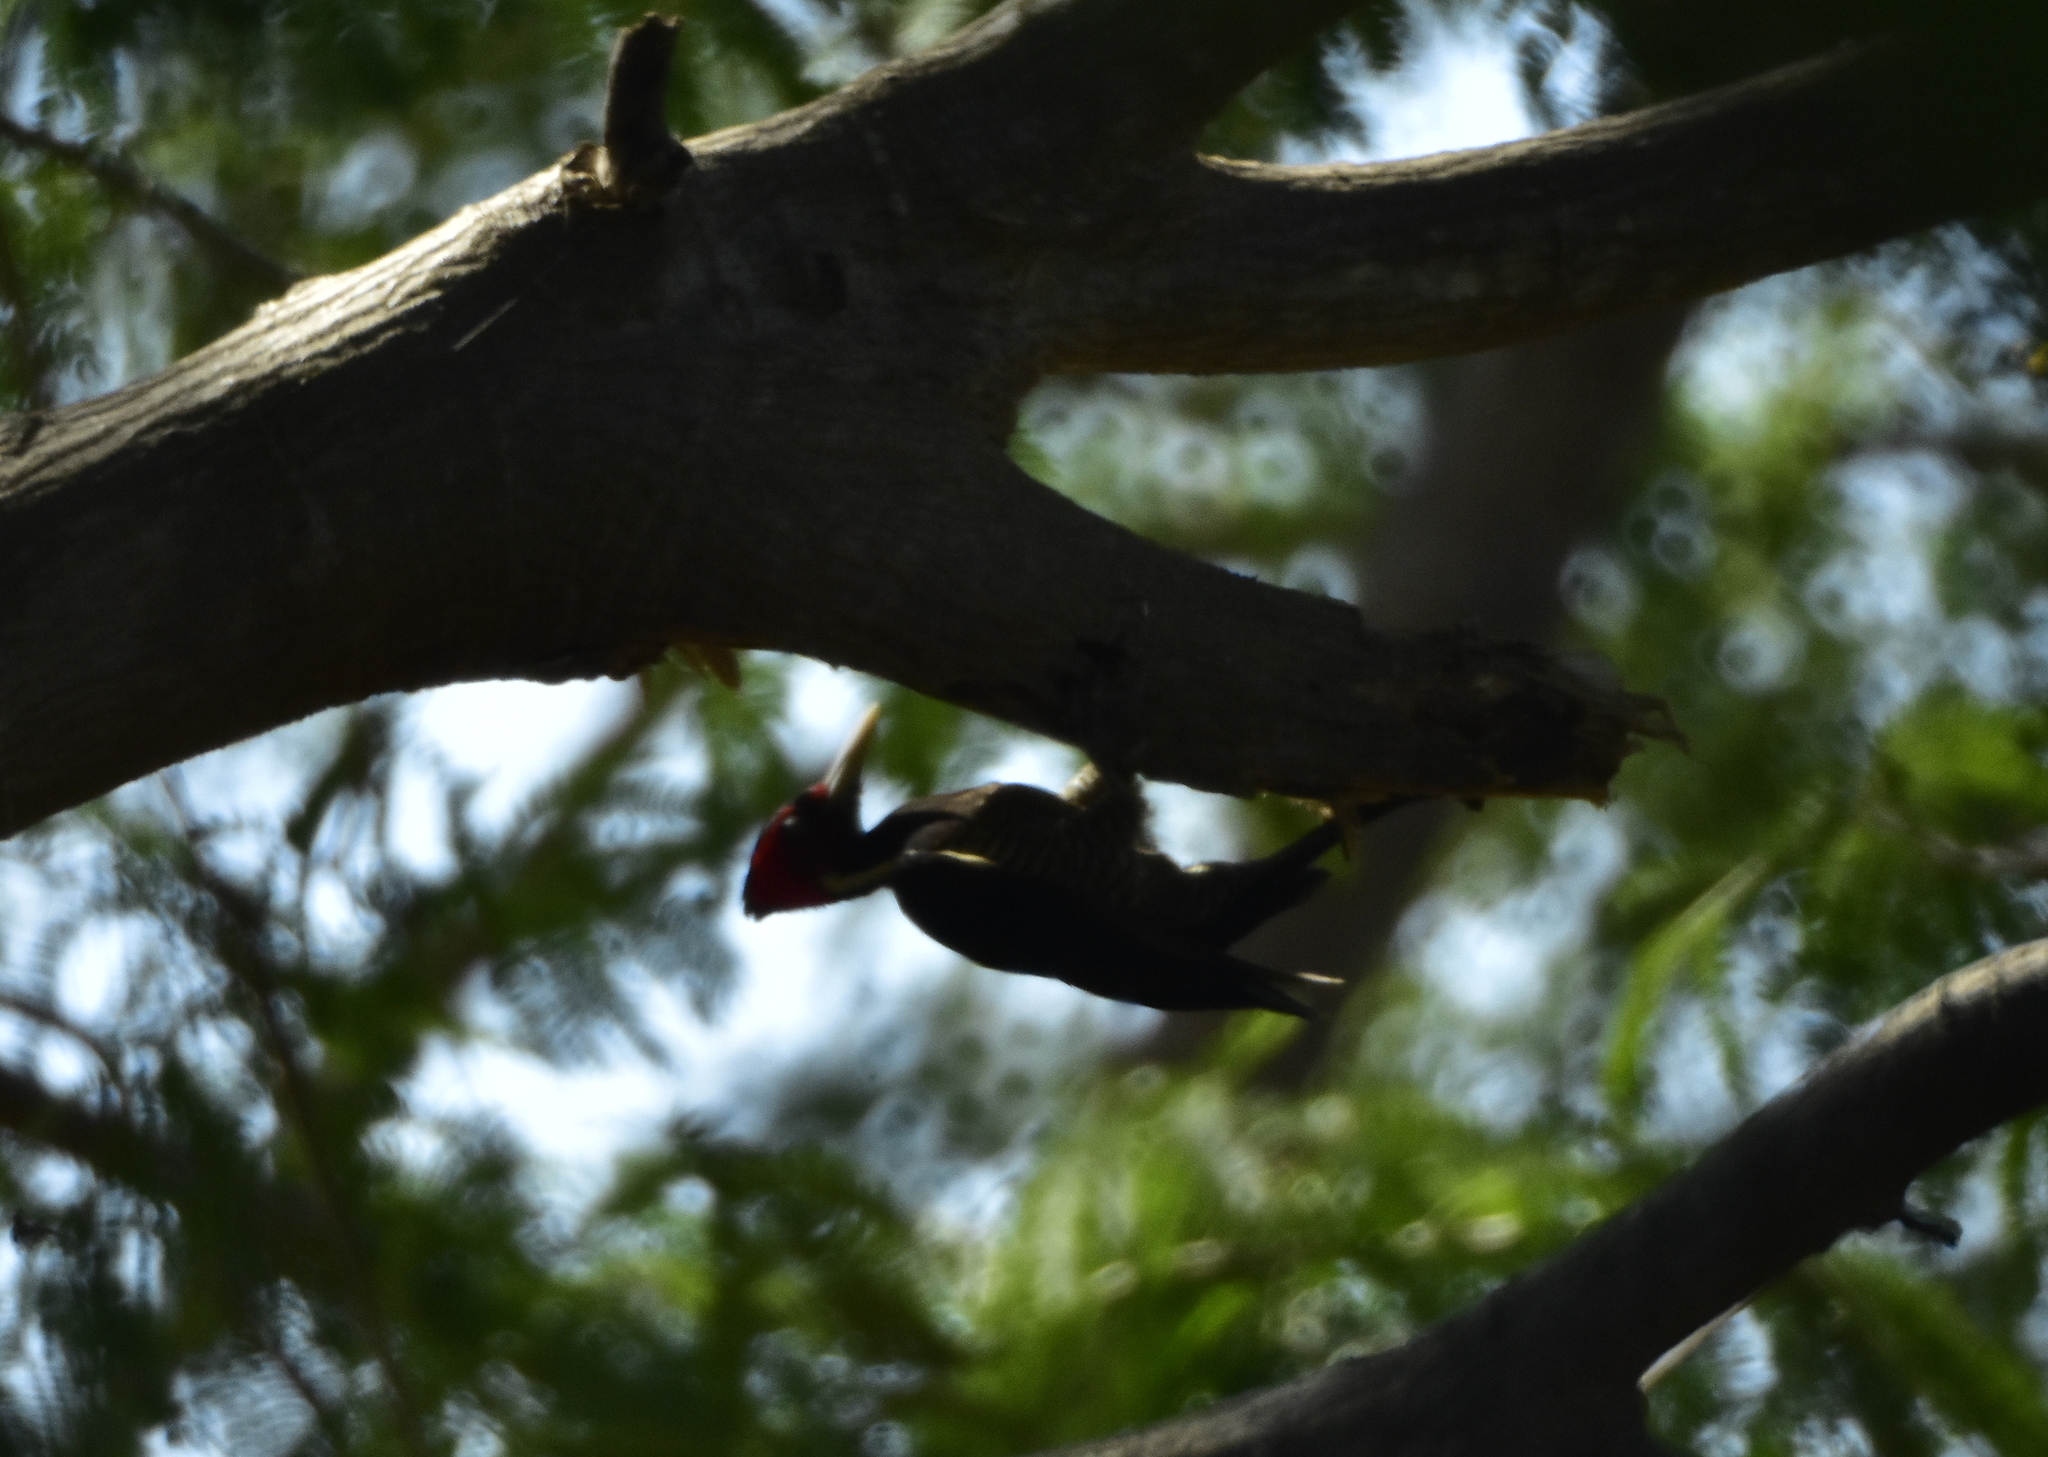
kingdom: Animalia
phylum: Chordata
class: Aves
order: Piciformes
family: Picidae
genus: Campephilus
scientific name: Campephilus guatemalensis
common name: Pale-billed woodpecker
